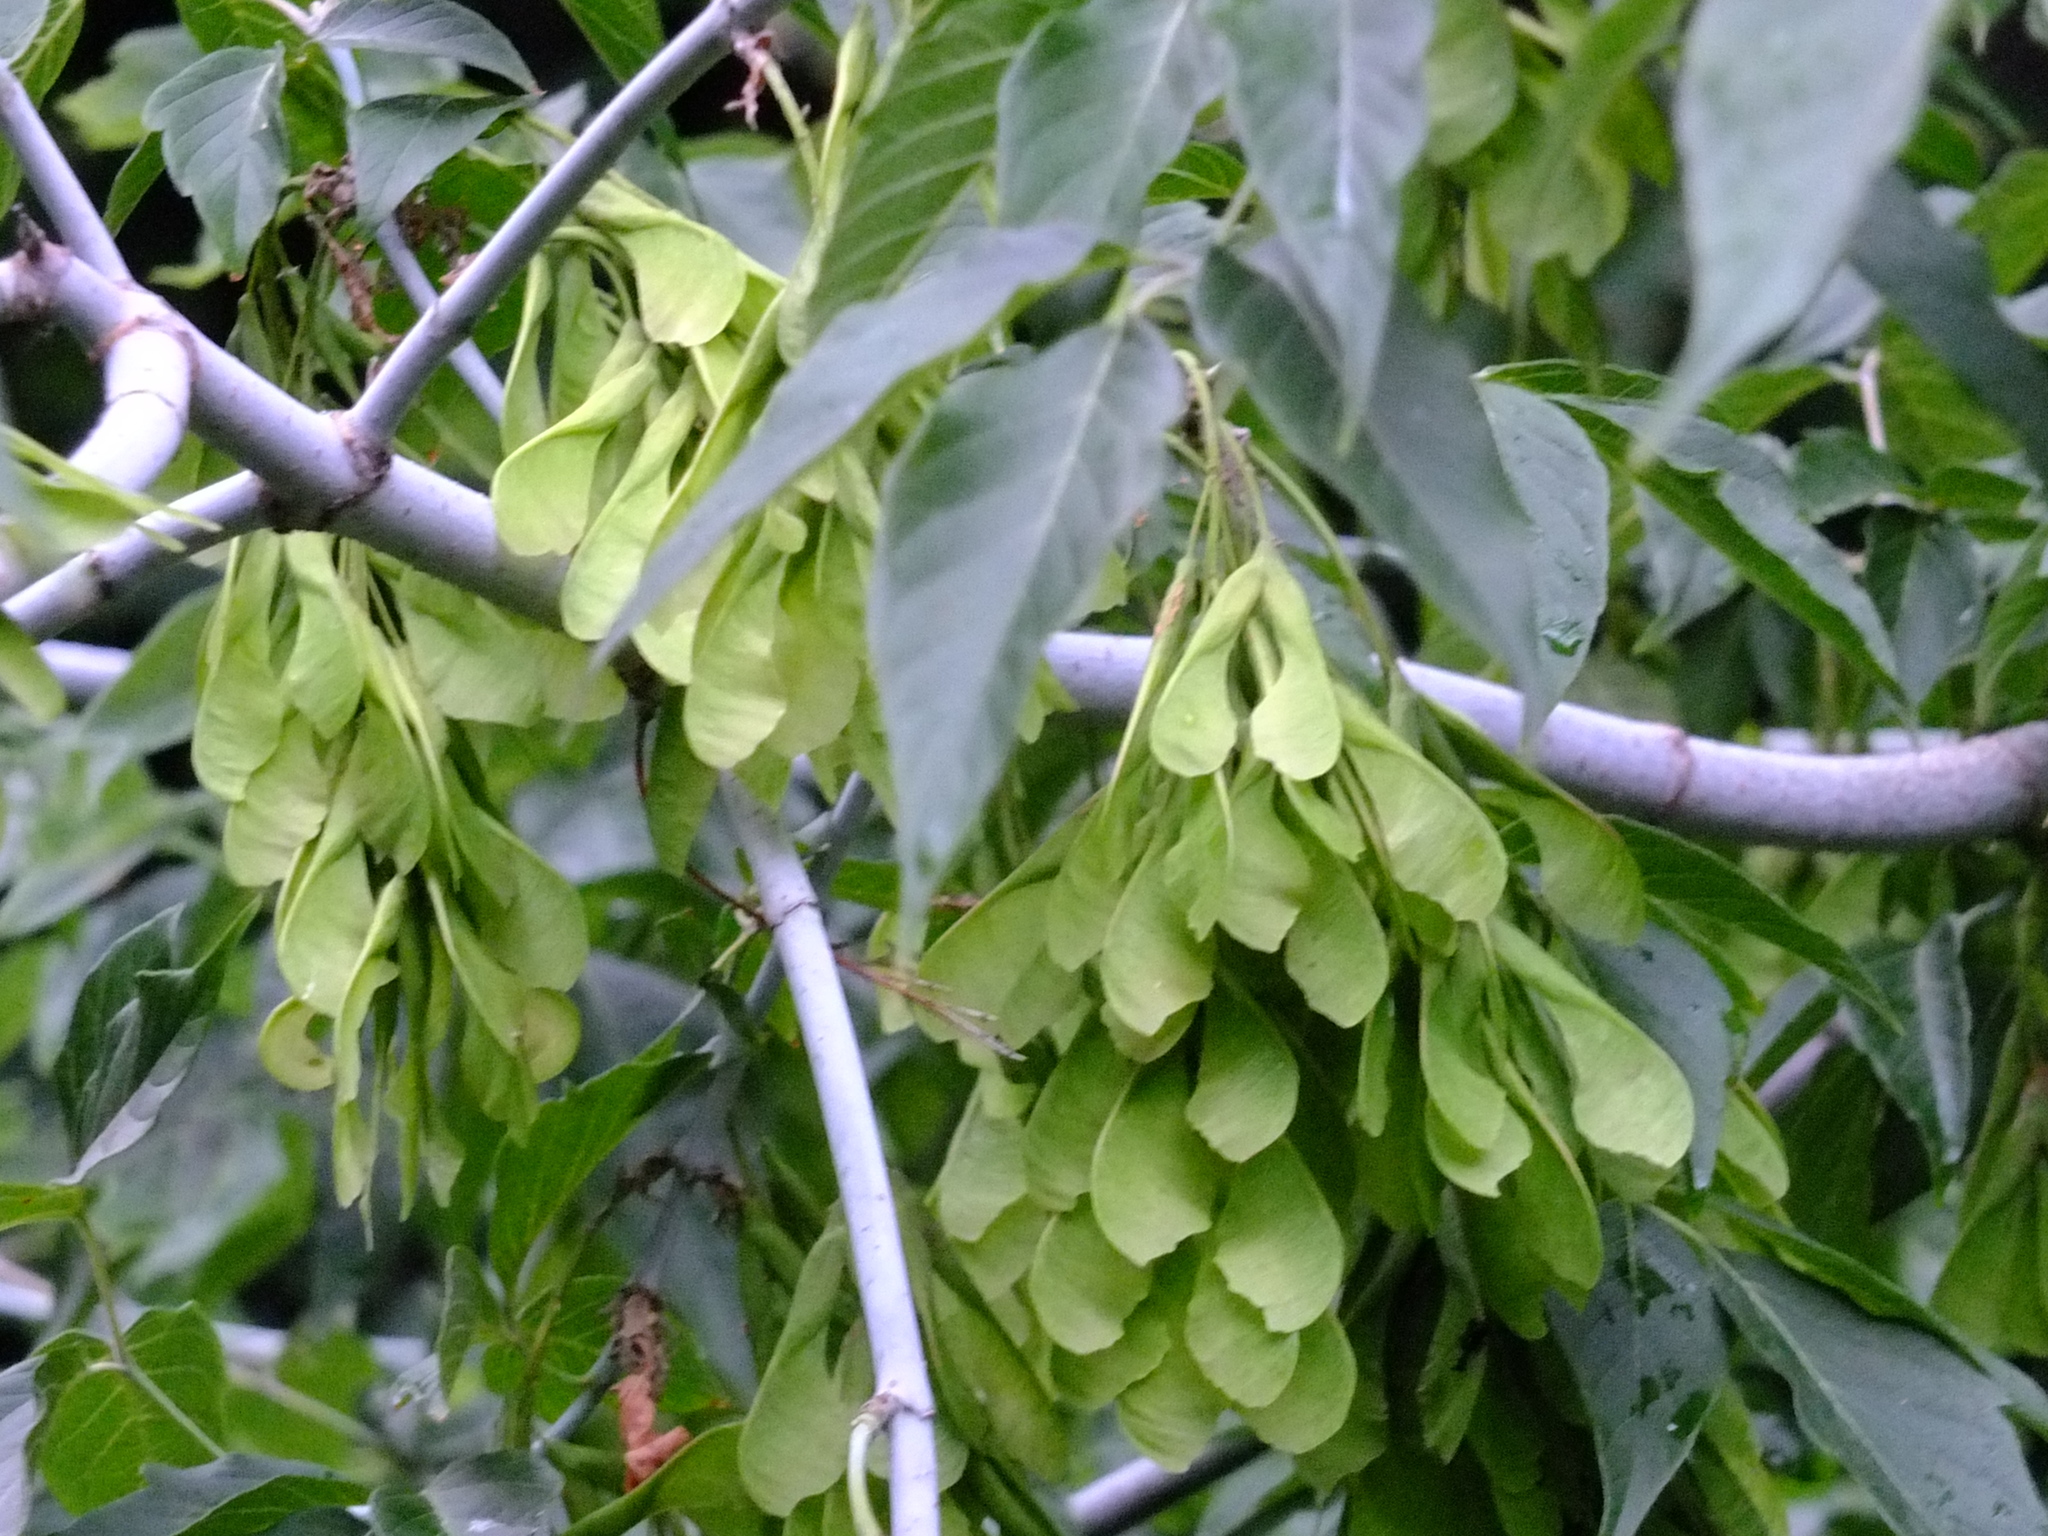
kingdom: Plantae
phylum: Tracheophyta
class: Magnoliopsida
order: Sapindales
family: Sapindaceae
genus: Acer
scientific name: Acer negundo
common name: Ashleaf maple
